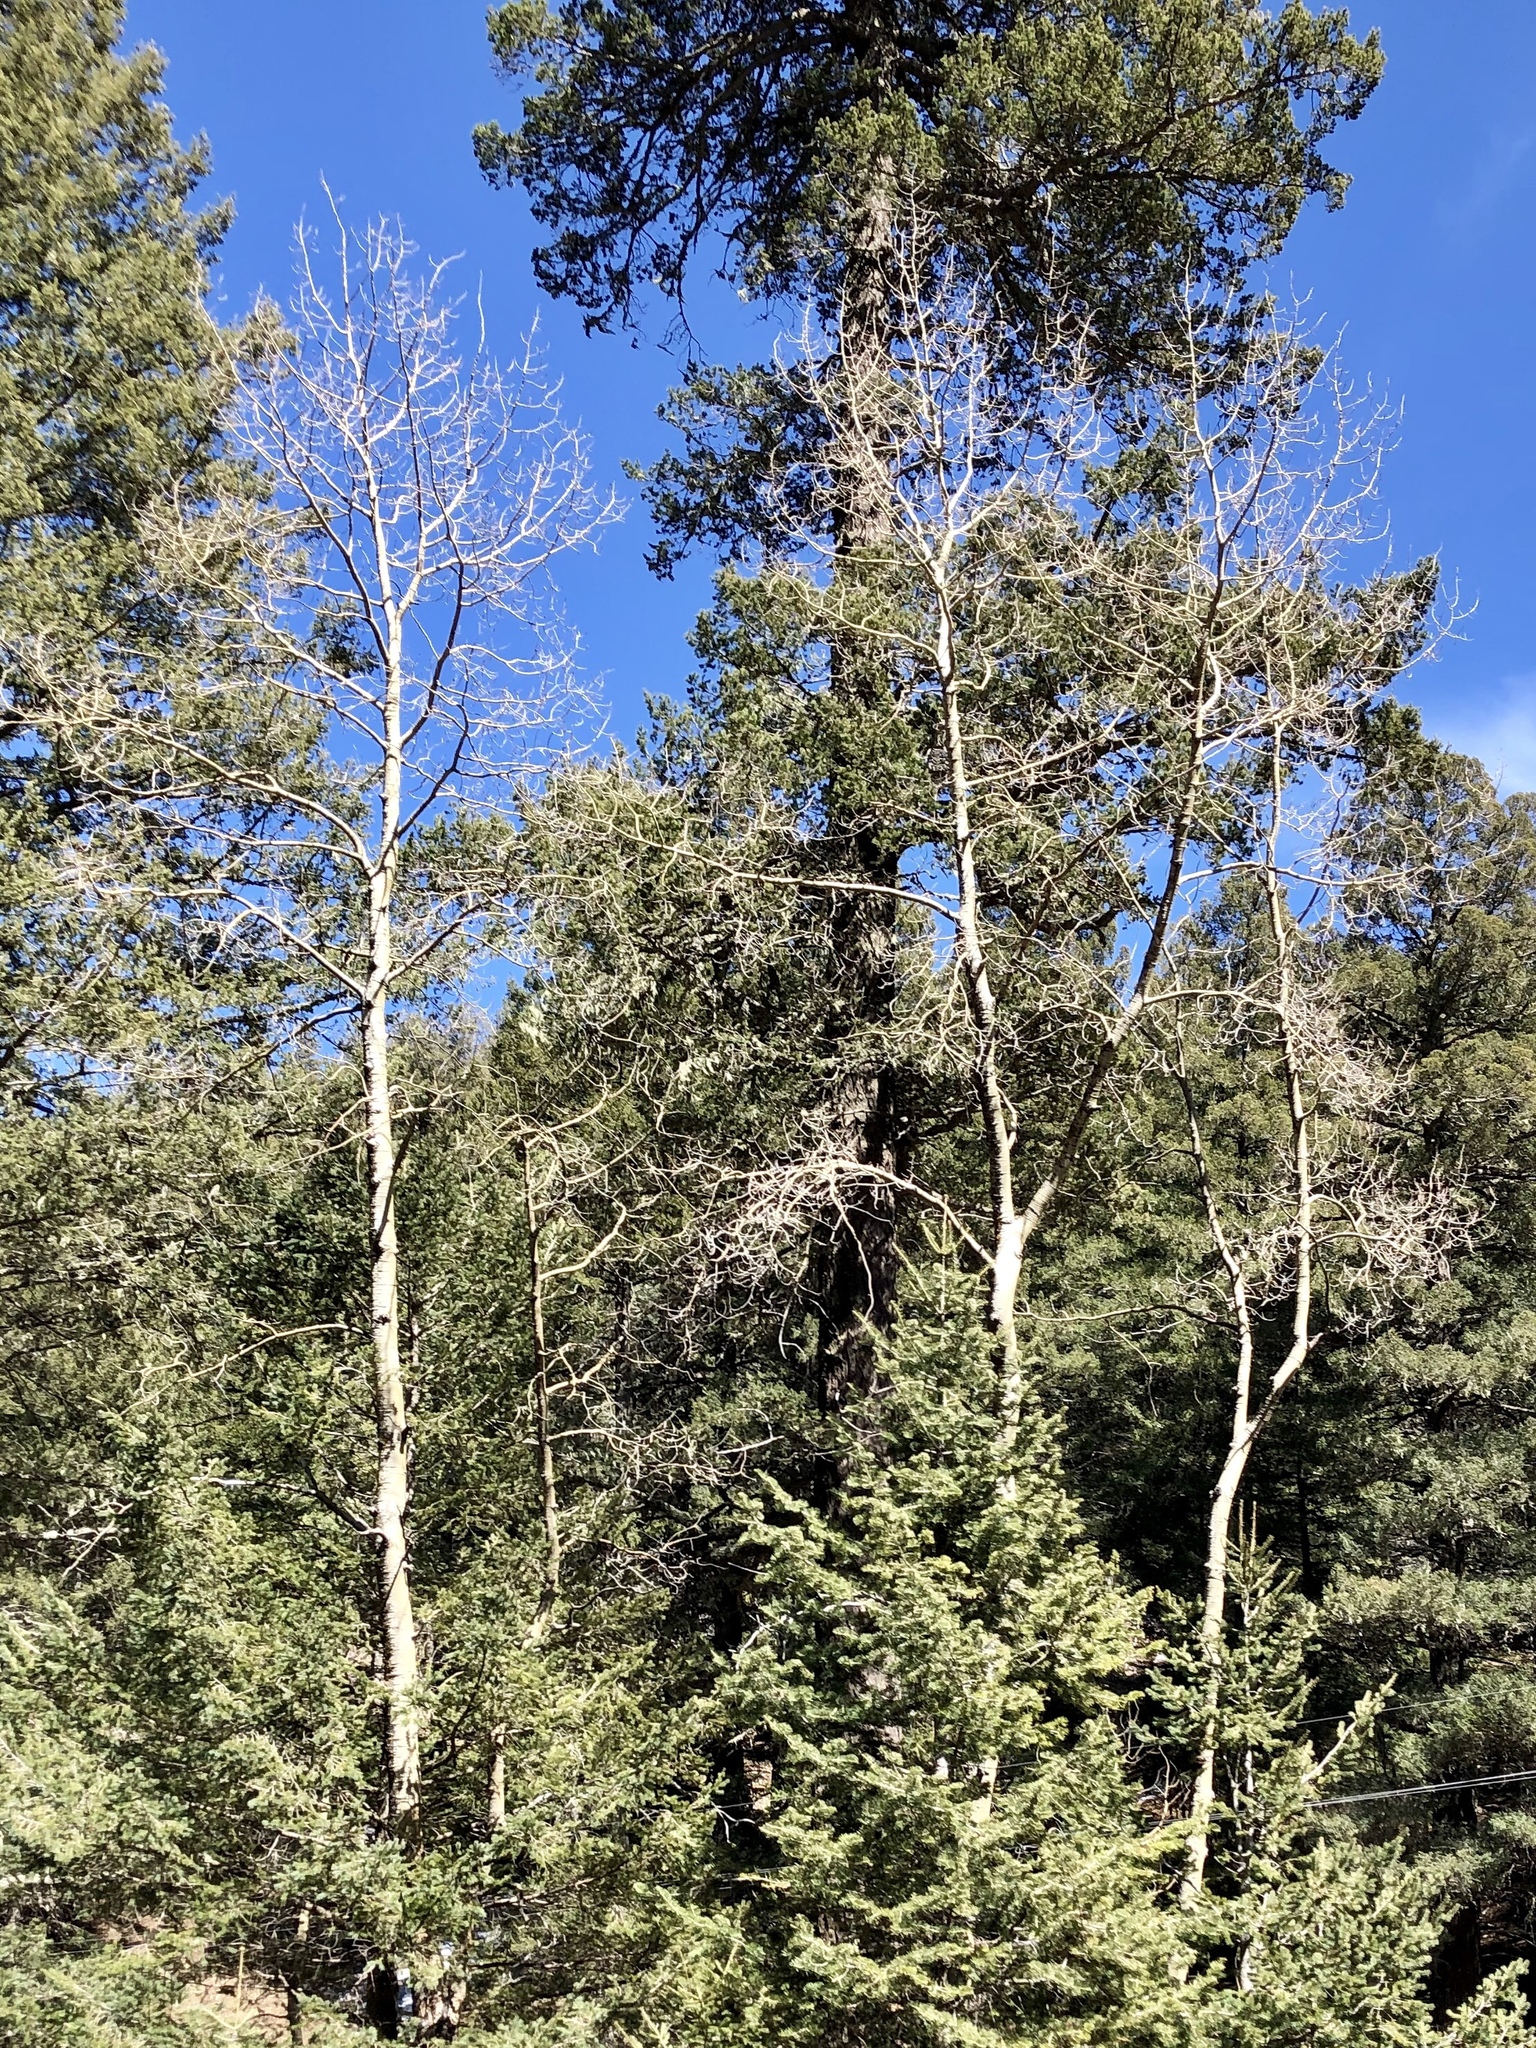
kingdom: Plantae
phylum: Tracheophyta
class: Magnoliopsida
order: Malpighiales
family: Salicaceae
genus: Populus
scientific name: Populus tremuloides
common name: Quaking aspen
